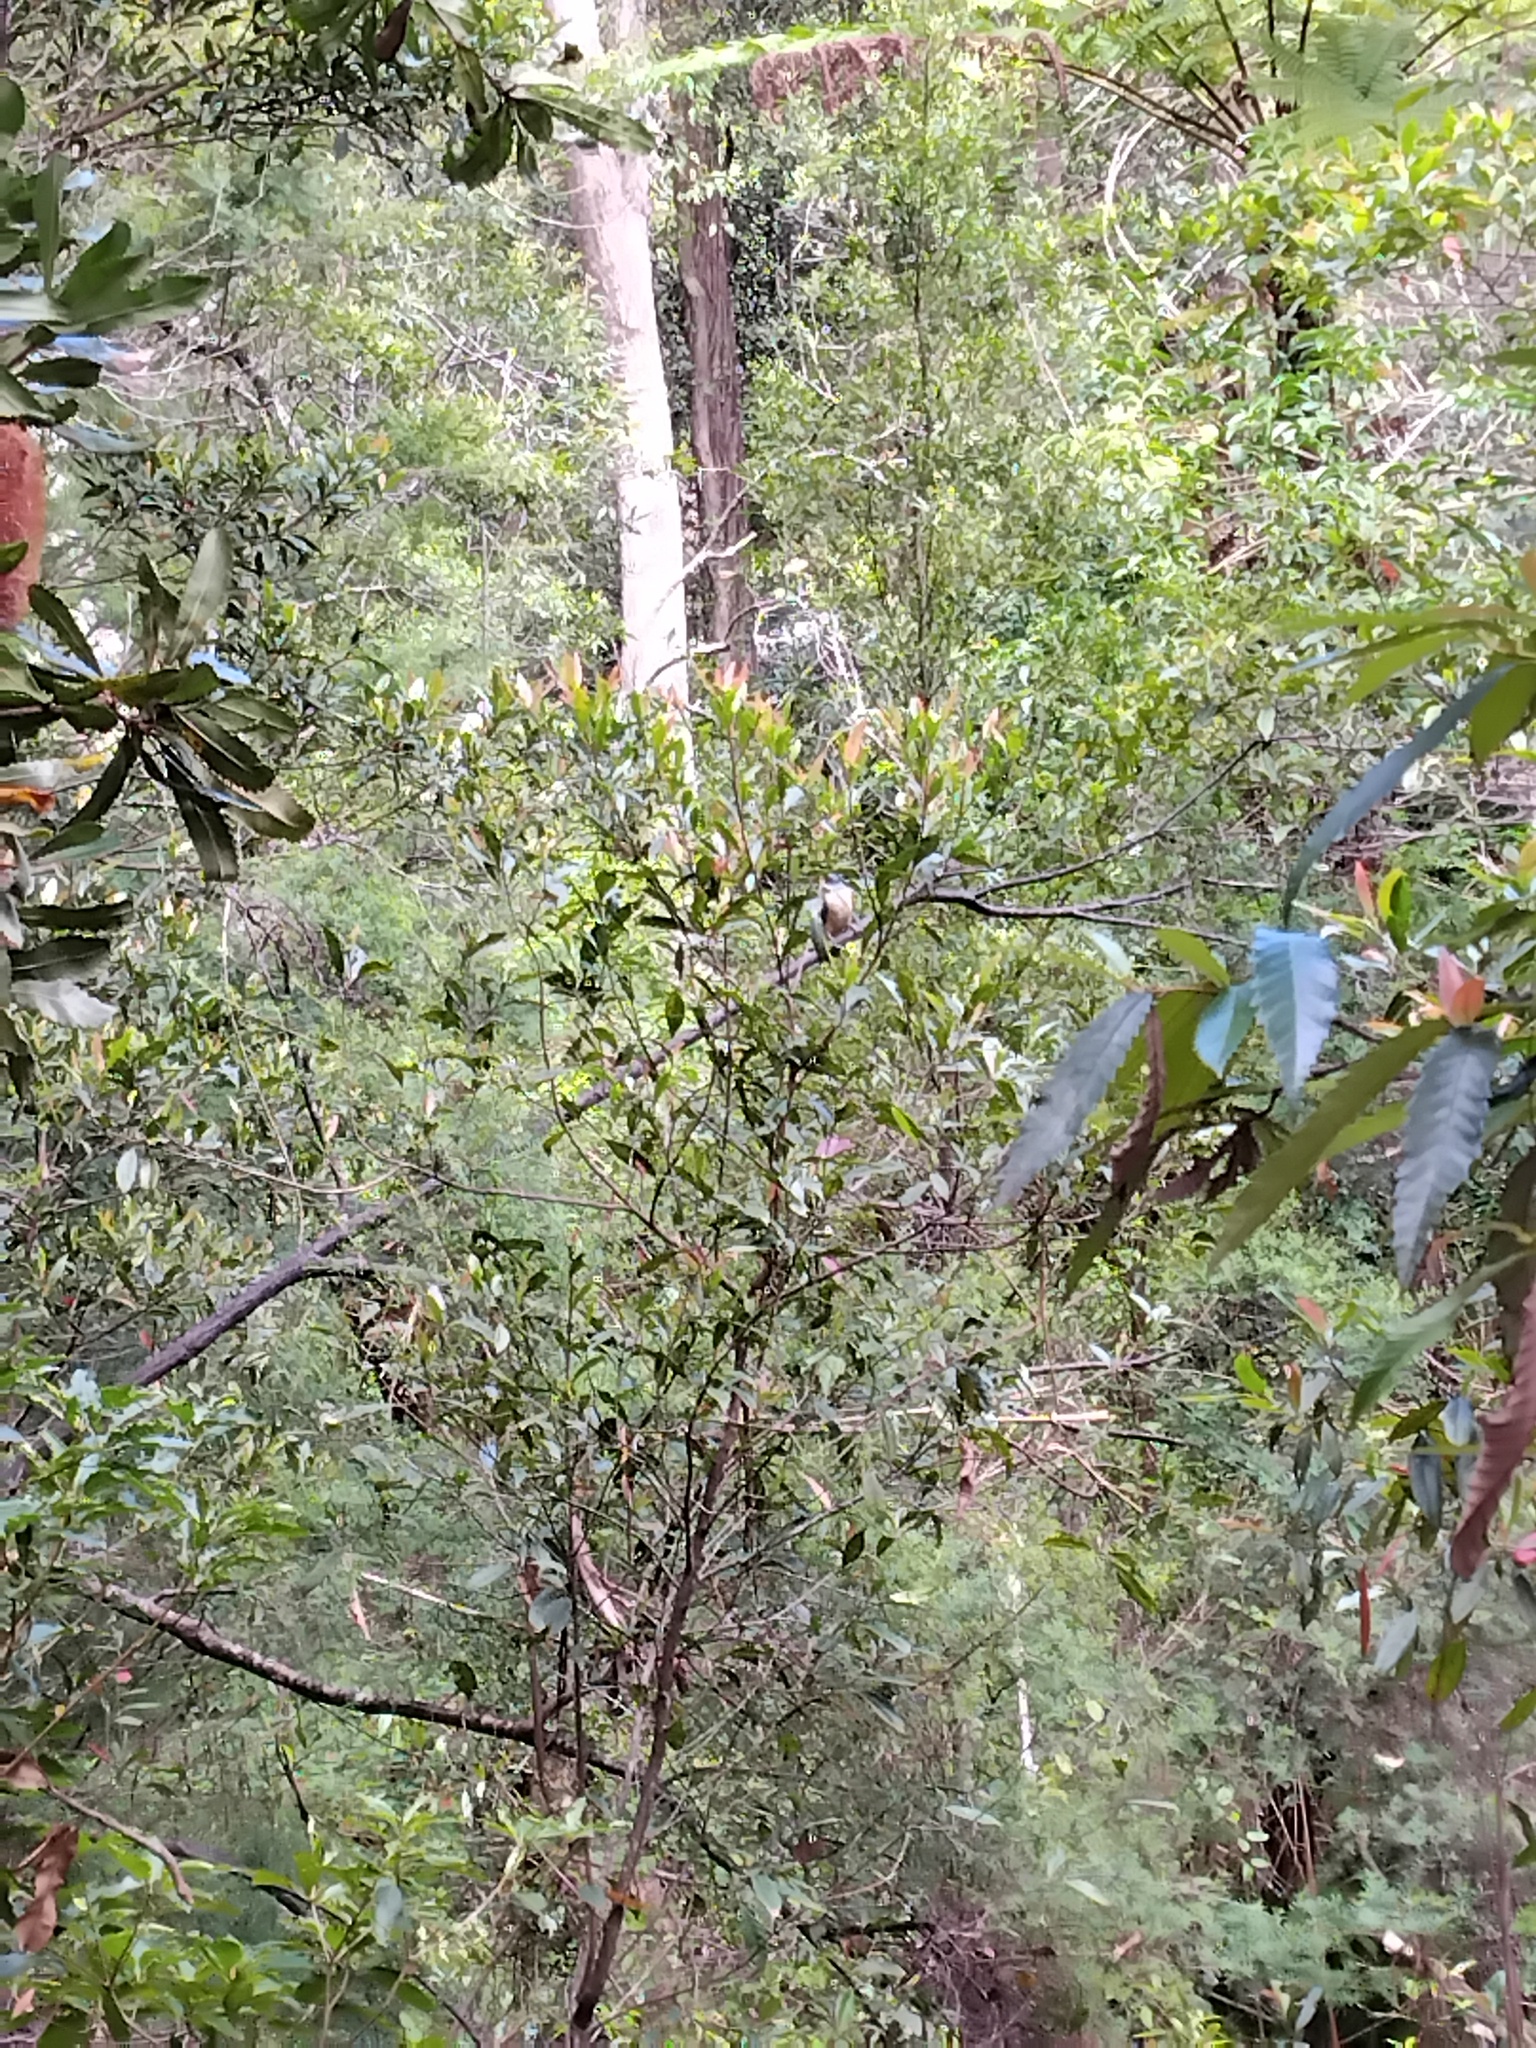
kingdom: Animalia
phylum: Chordata
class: Aves
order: Coraciiformes
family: Alcedinidae
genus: Todiramphus
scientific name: Todiramphus sanctus
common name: Sacred kingfisher
